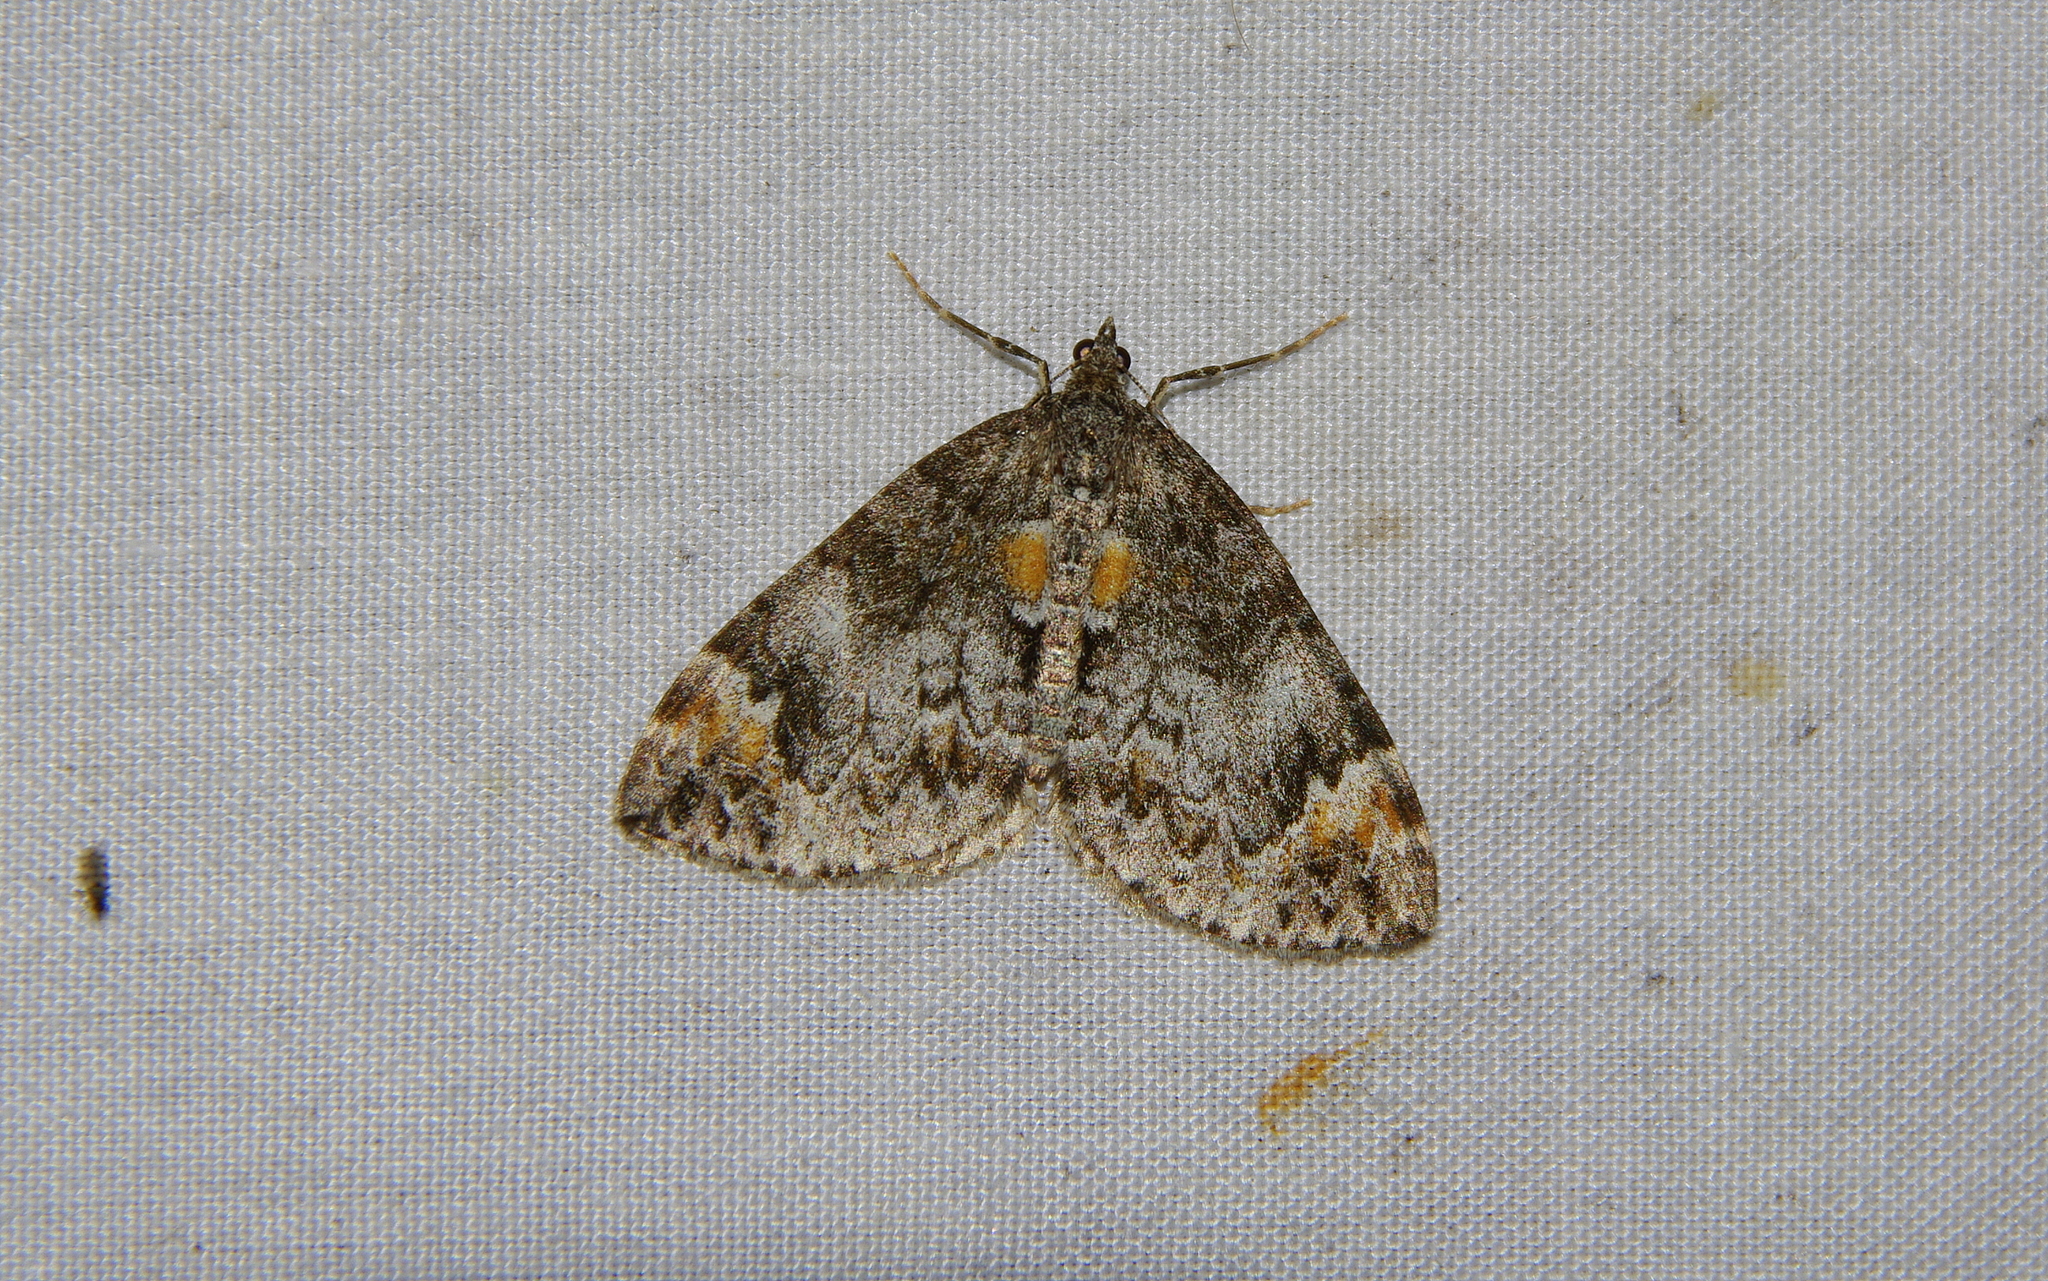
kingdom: Animalia
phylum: Arthropoda
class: Insecta
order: Lepidoptera
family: Geometridae
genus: Dysstroma
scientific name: Dysstroma truncata
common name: Common marbled carpet
